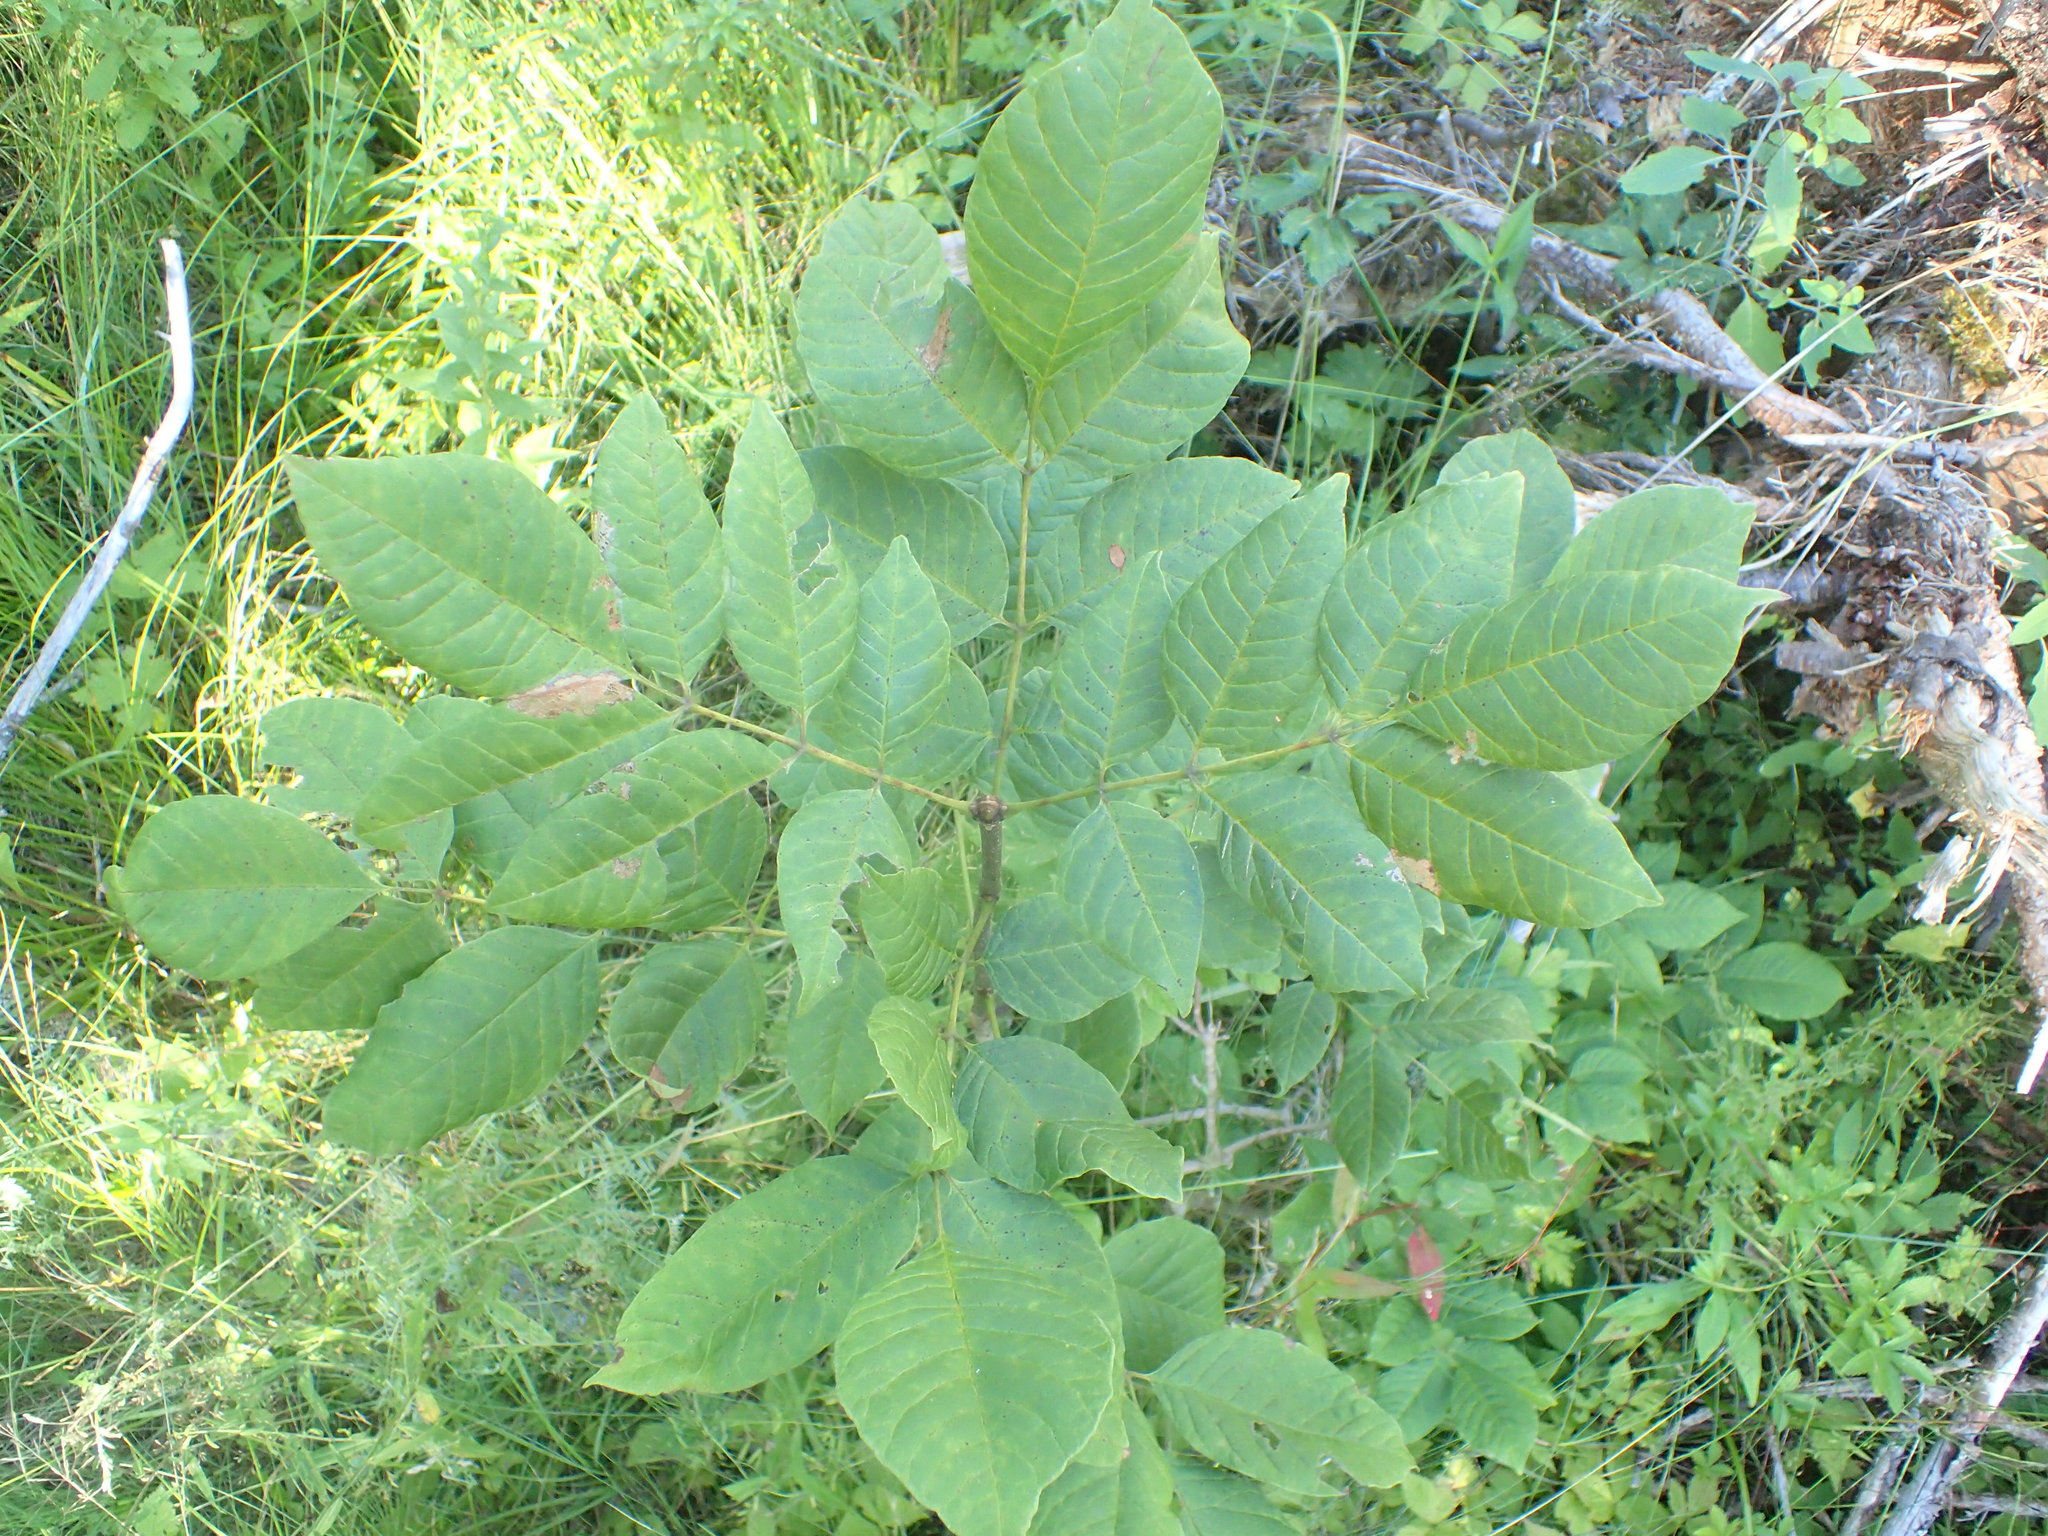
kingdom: Plantae
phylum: Tracheophyta
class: Magnoliopsida
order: Lamiales
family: Oleaceae
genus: Fraxinus
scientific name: Fraxinus americana
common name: White ash
